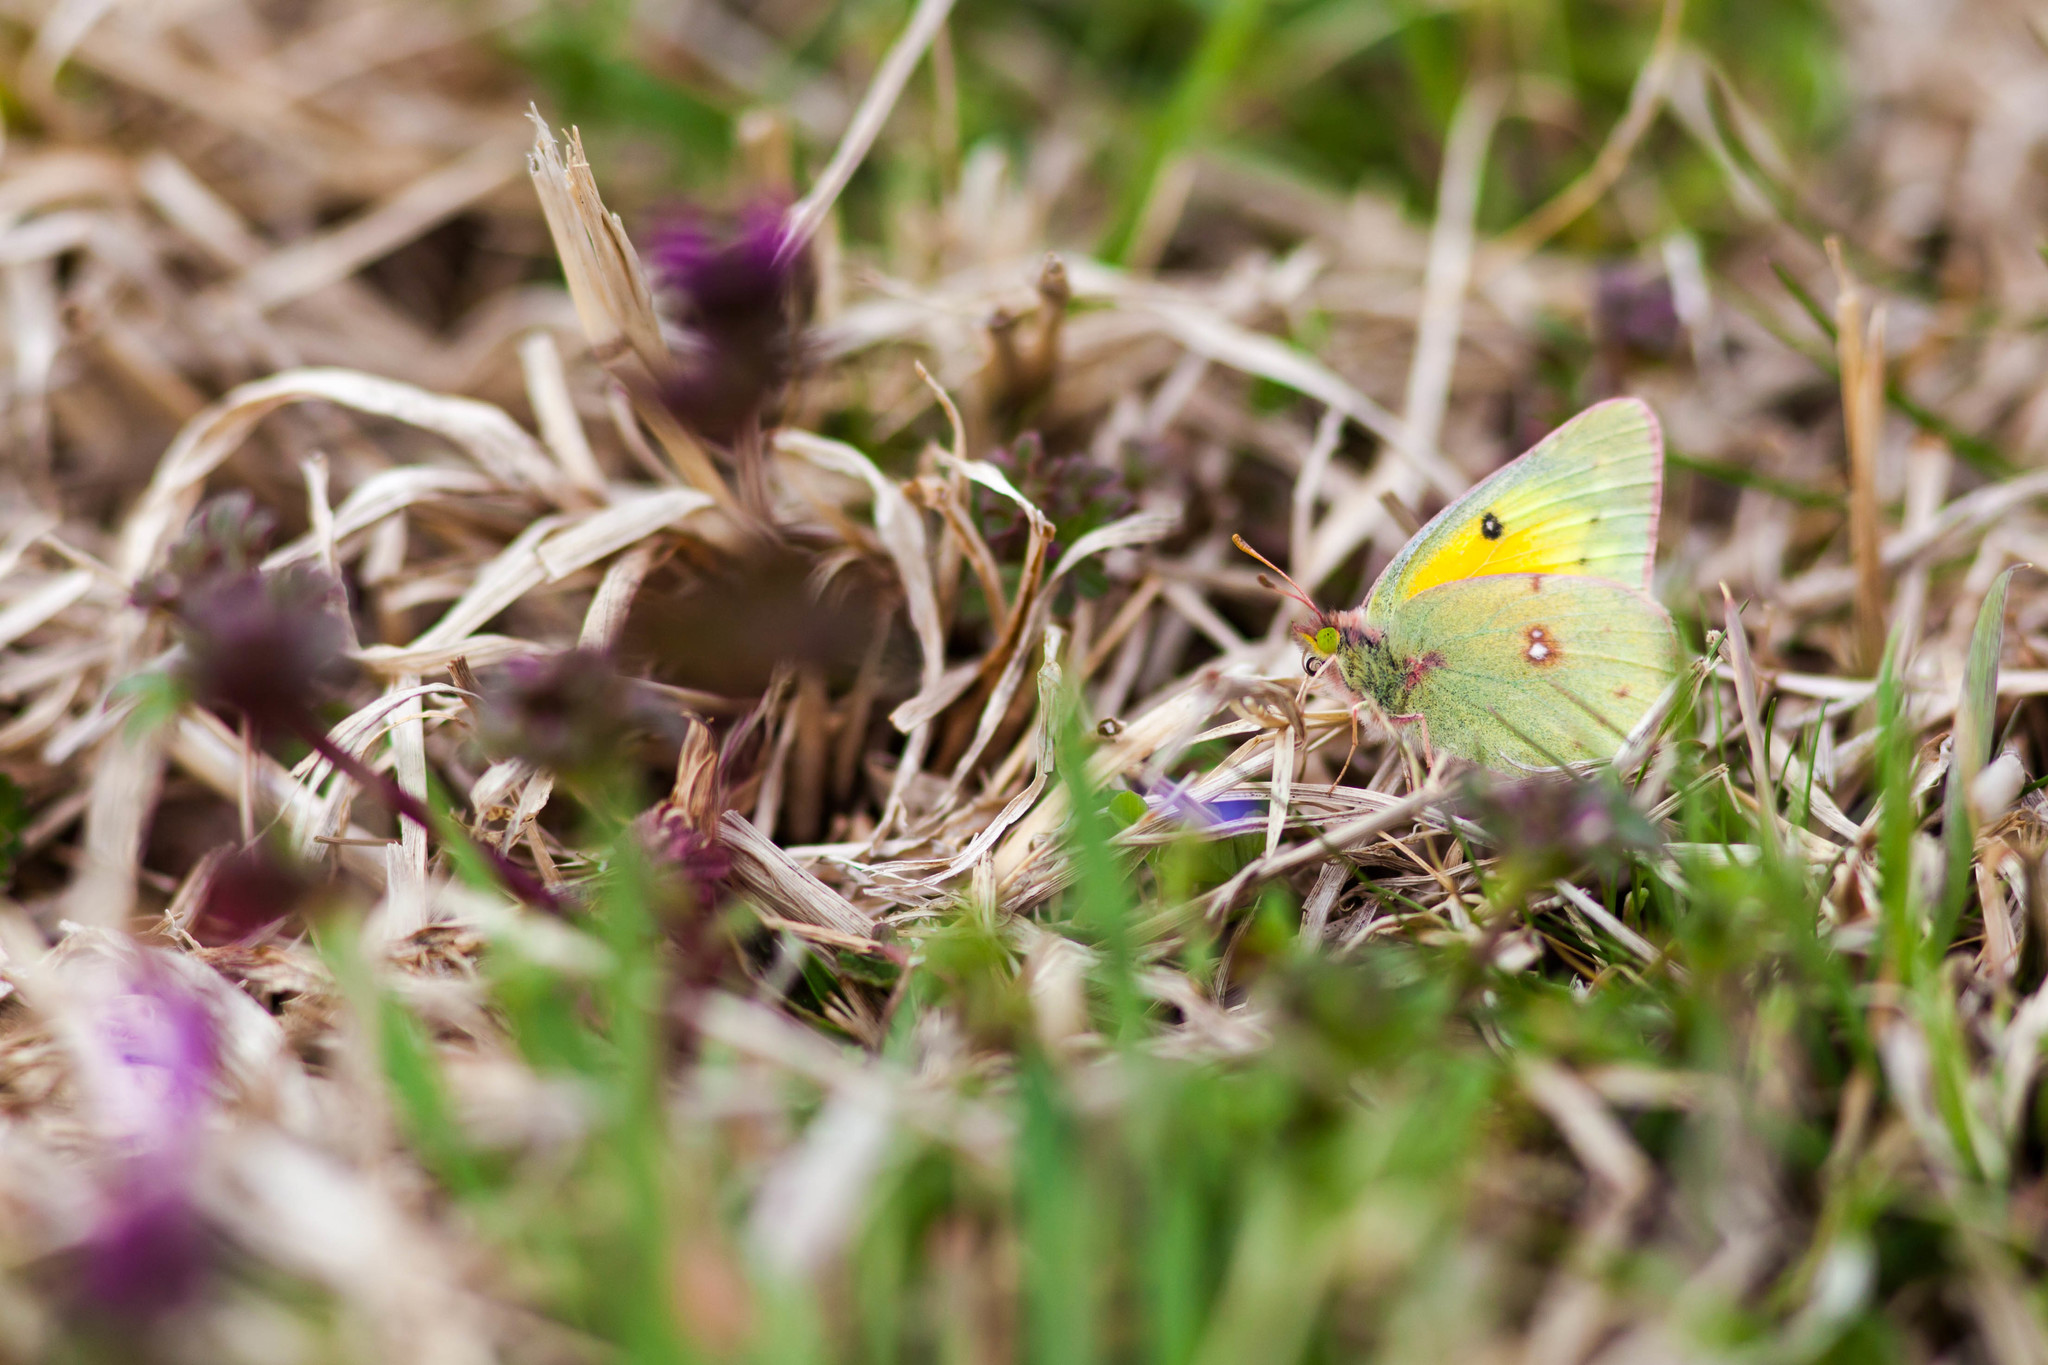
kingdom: Animalia
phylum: Arthropoda
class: Insecta
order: Lepidoptera
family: Pieridae
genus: Colias
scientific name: Colias eurytheme
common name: Alfalfa butterfly
